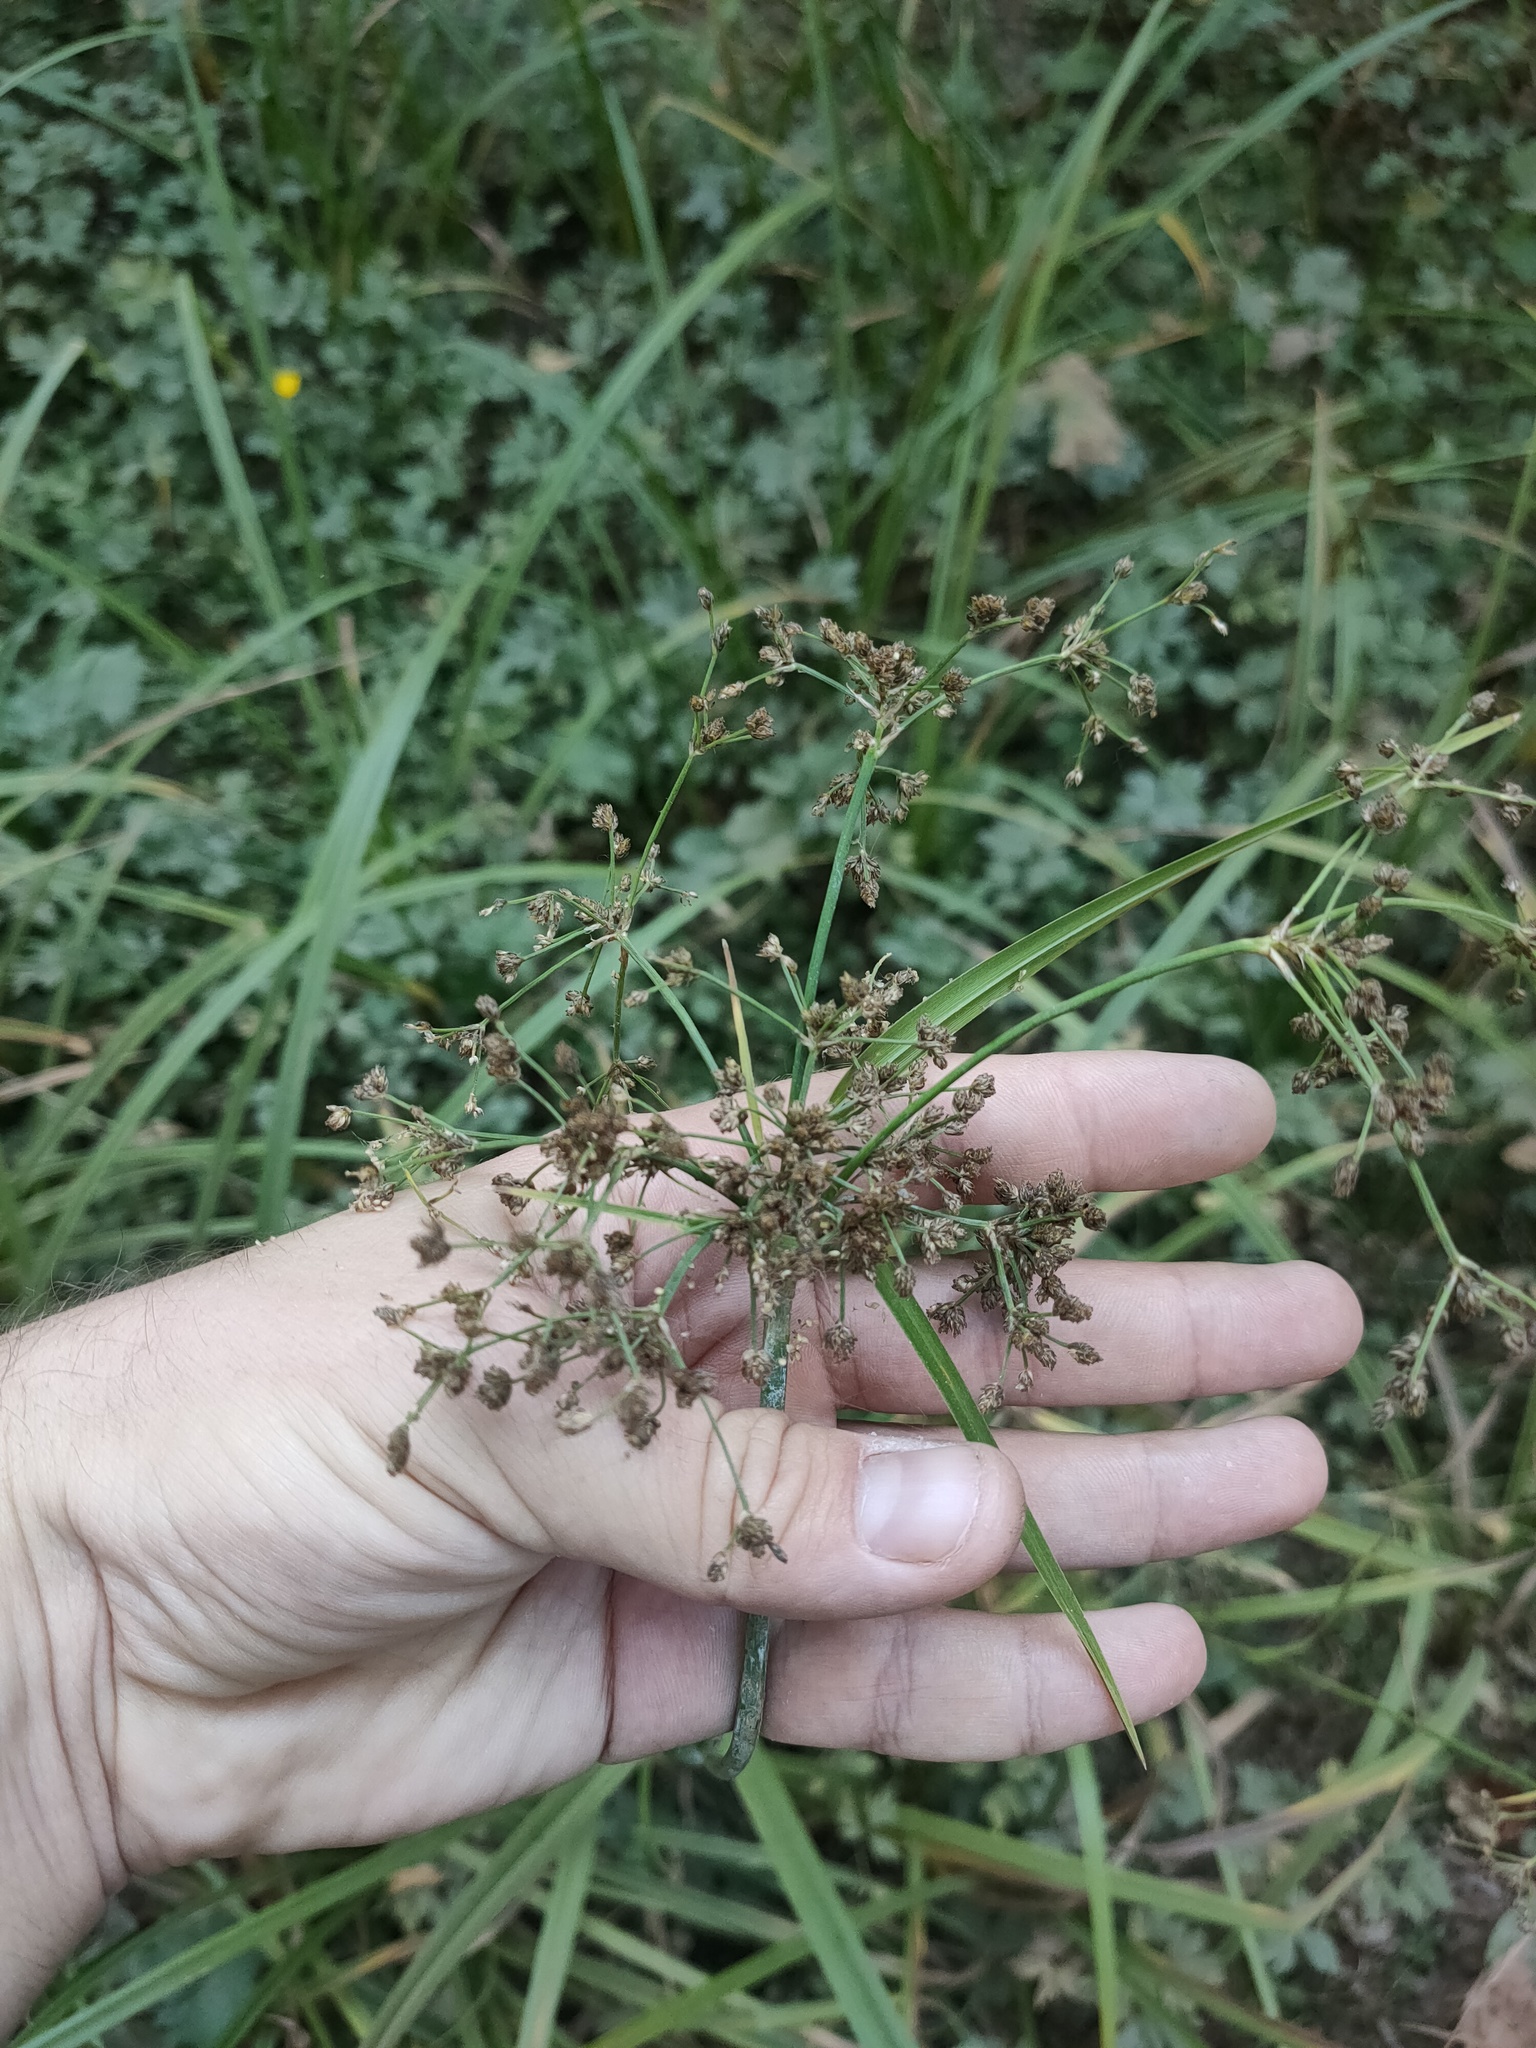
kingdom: Plantae
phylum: Tracheophyta
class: Liliopsida
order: Poales
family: Cyperaceae
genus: Scirpus
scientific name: Scirpus sylvaticus
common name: Wood club-rush
